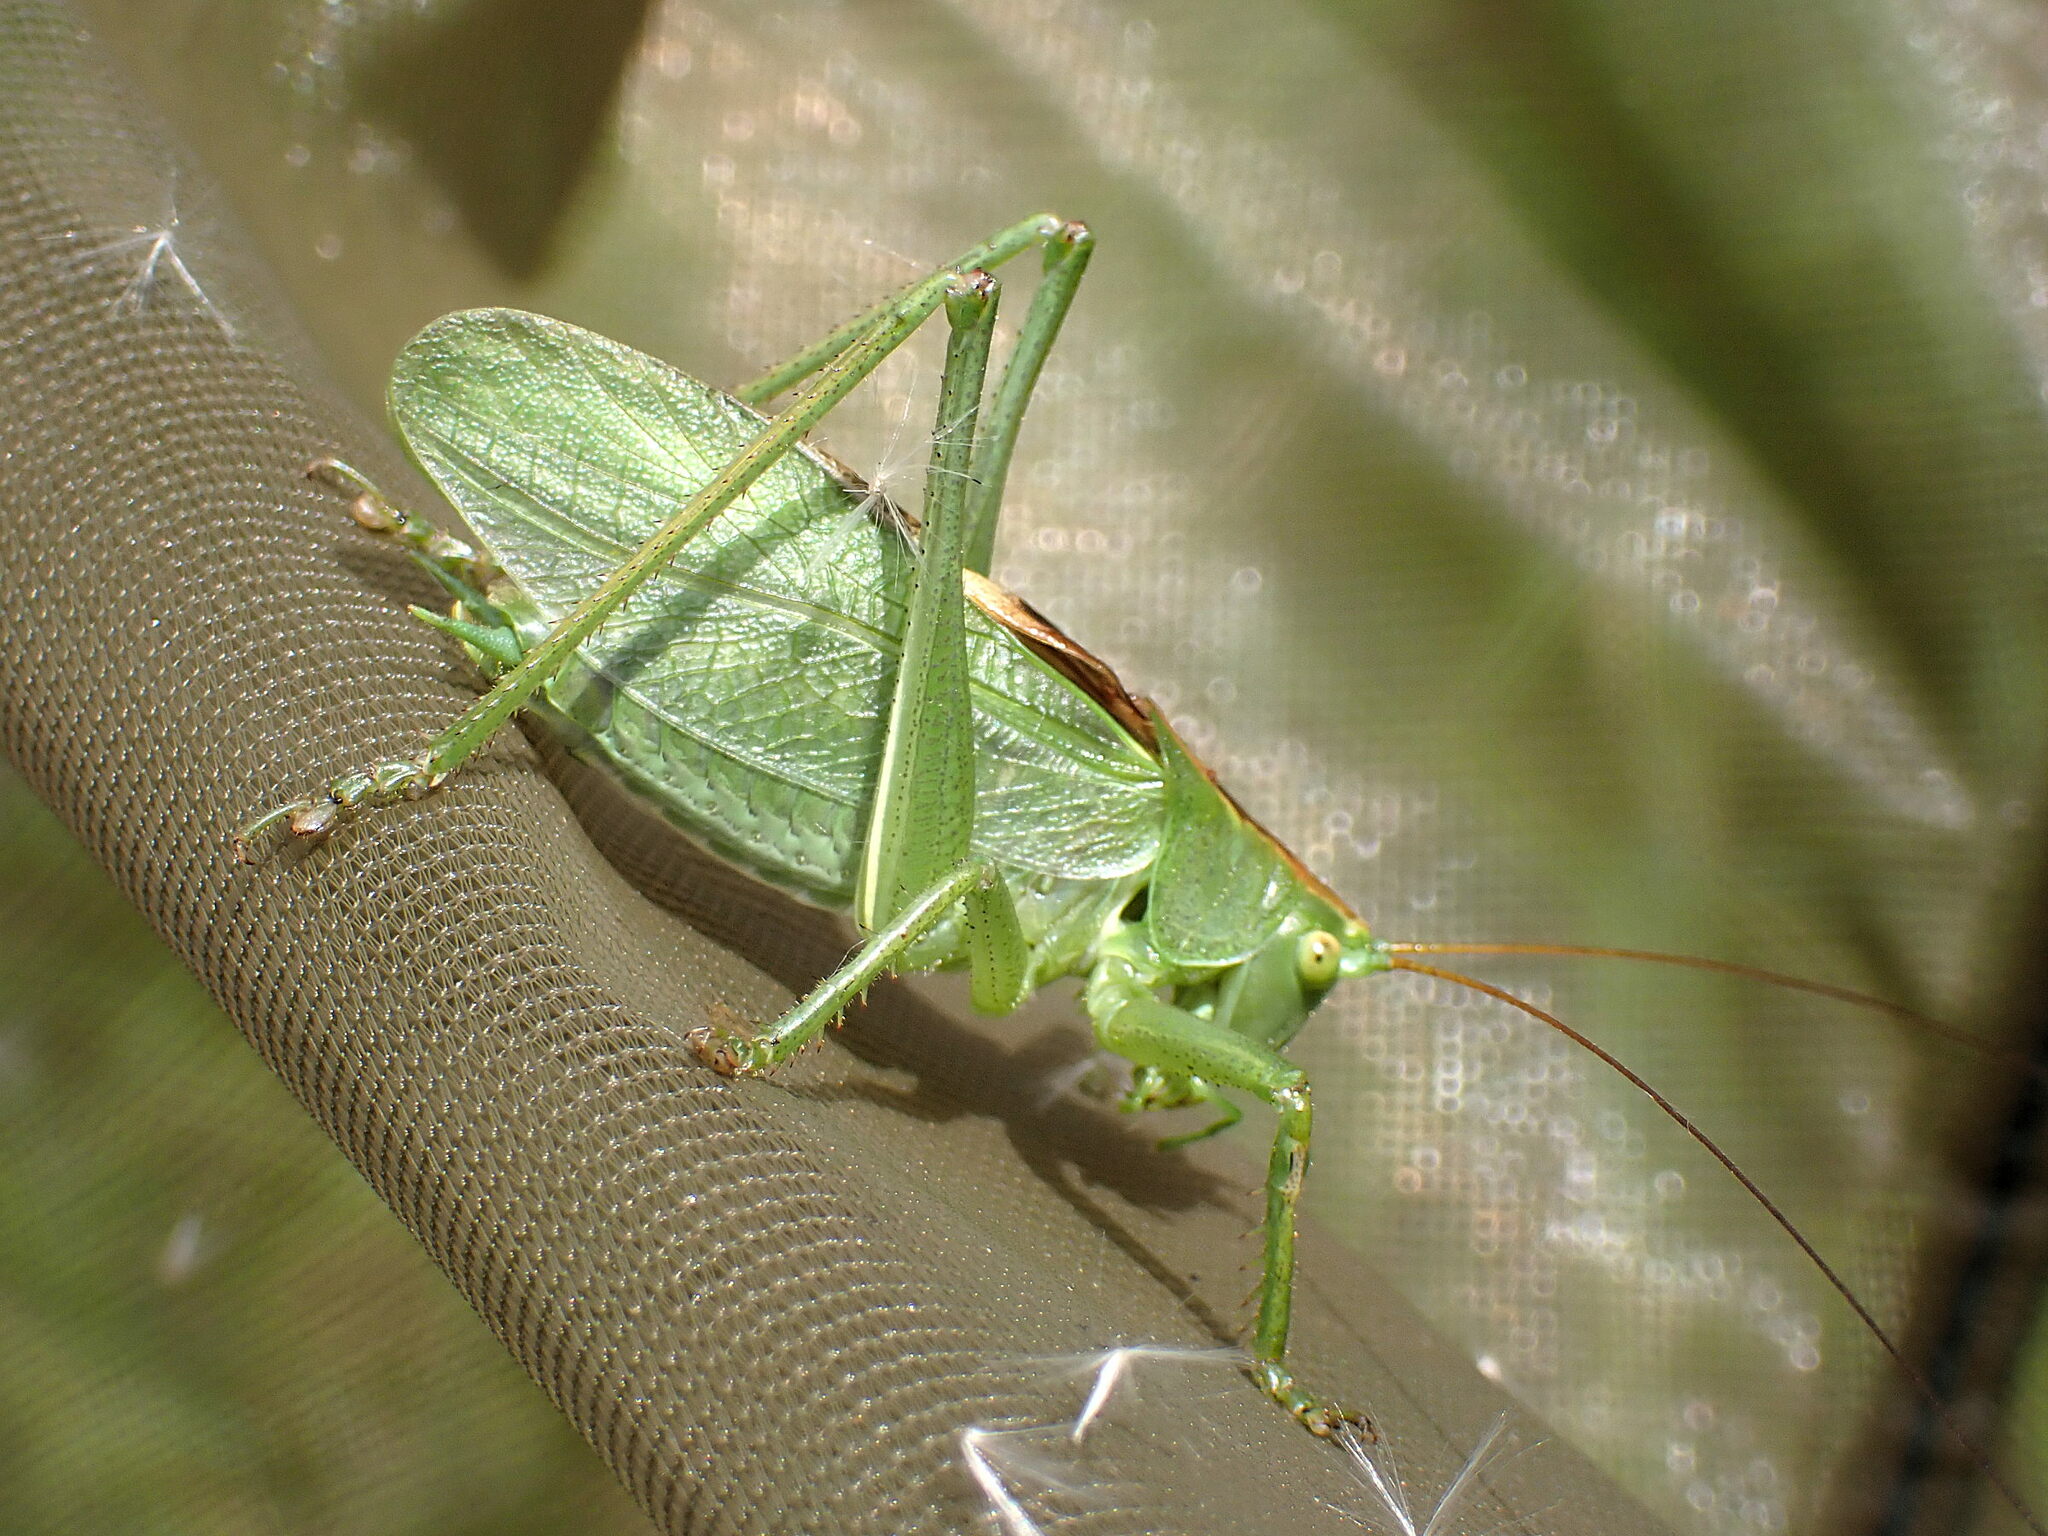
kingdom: Animalia
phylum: Arthropoda
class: Insecta
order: Orthoptera
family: Tettigoniidae
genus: Tettigonia
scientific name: Tettigonia cantans
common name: Upland green bush-cricket
